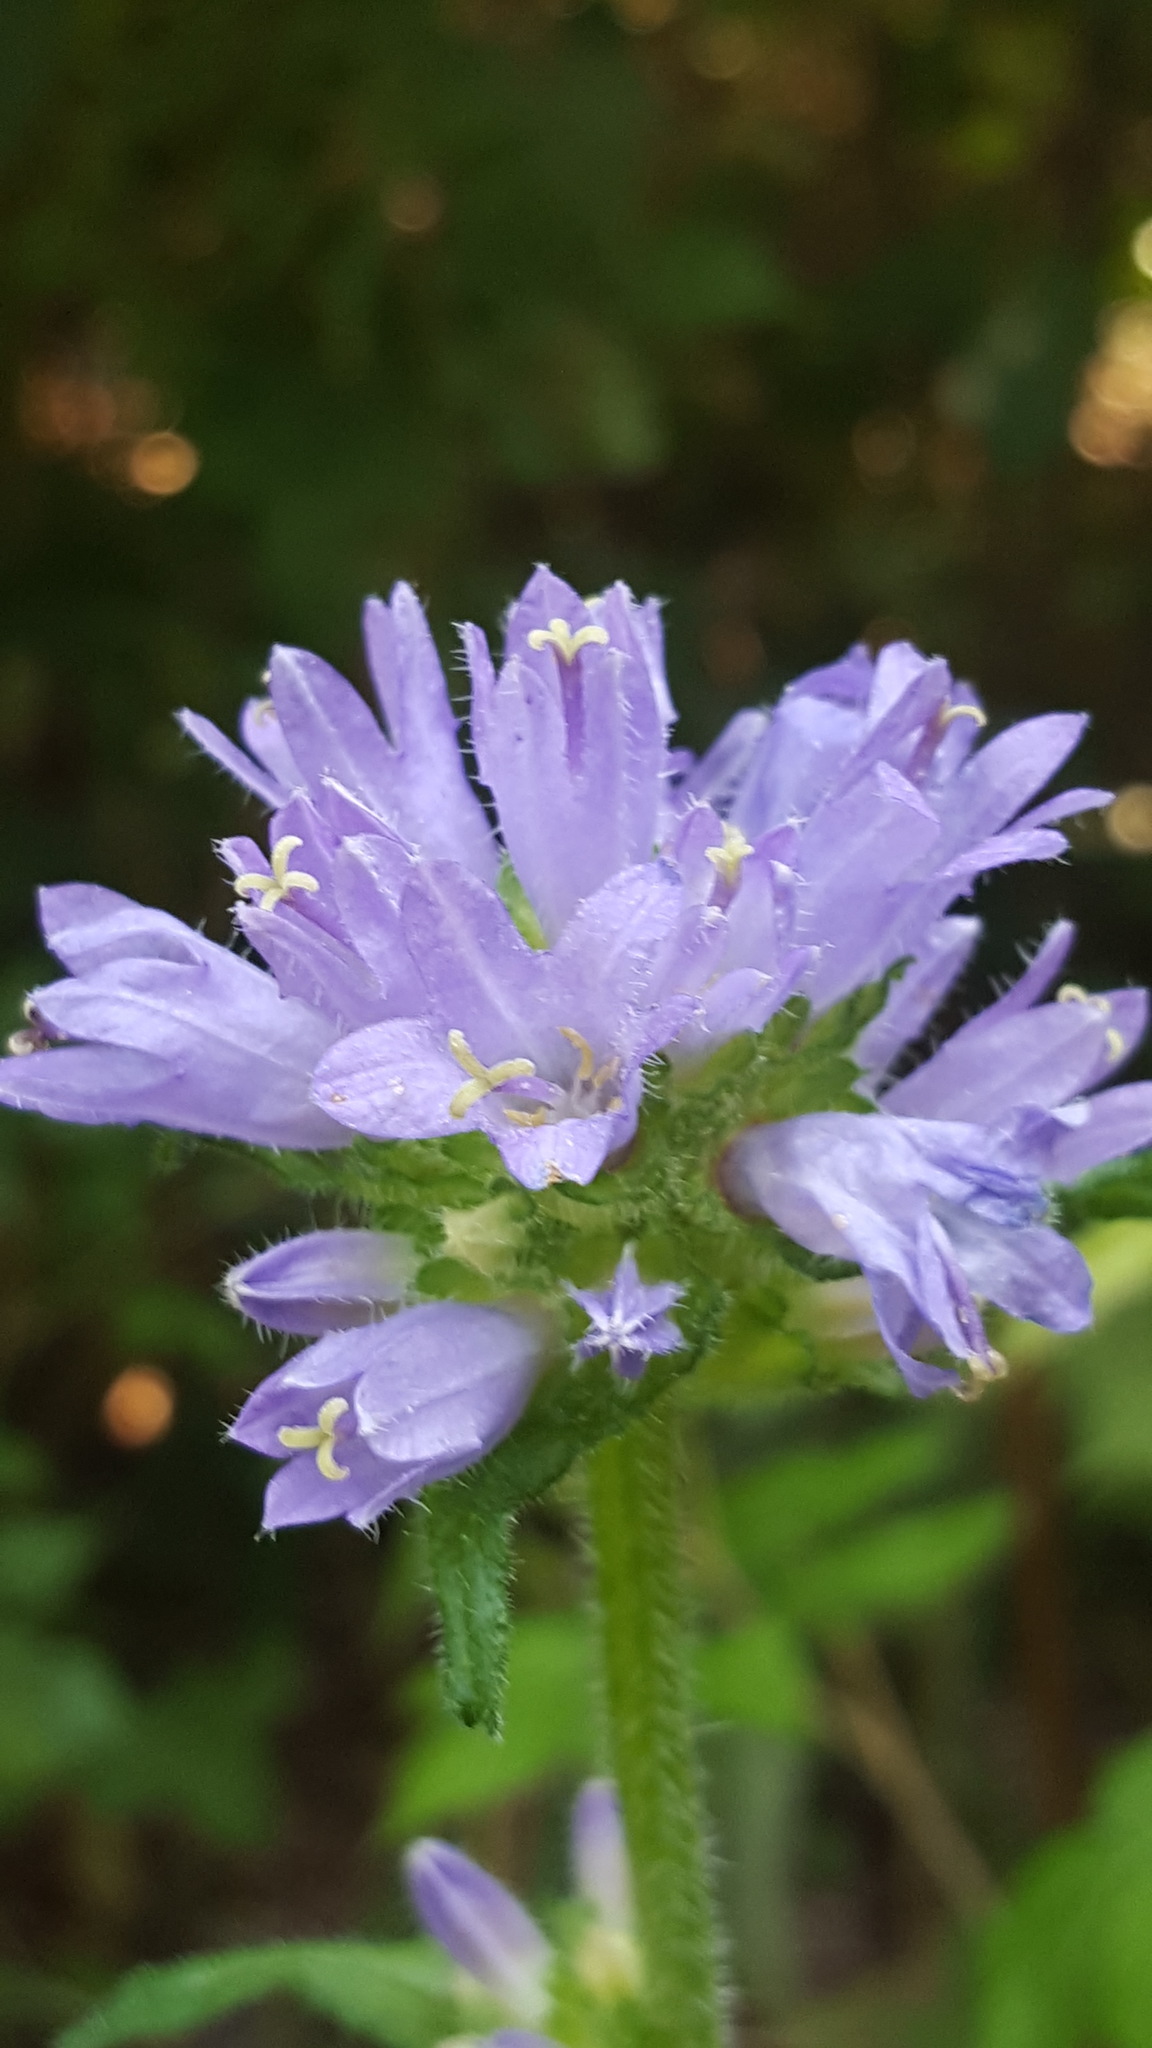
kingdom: Plantae
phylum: Tracheophyta
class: Magnoliopsida
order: Asterales
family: Campanulaceae
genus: Campanula
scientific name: Campanula cervicaria
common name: Bristly bellflower
